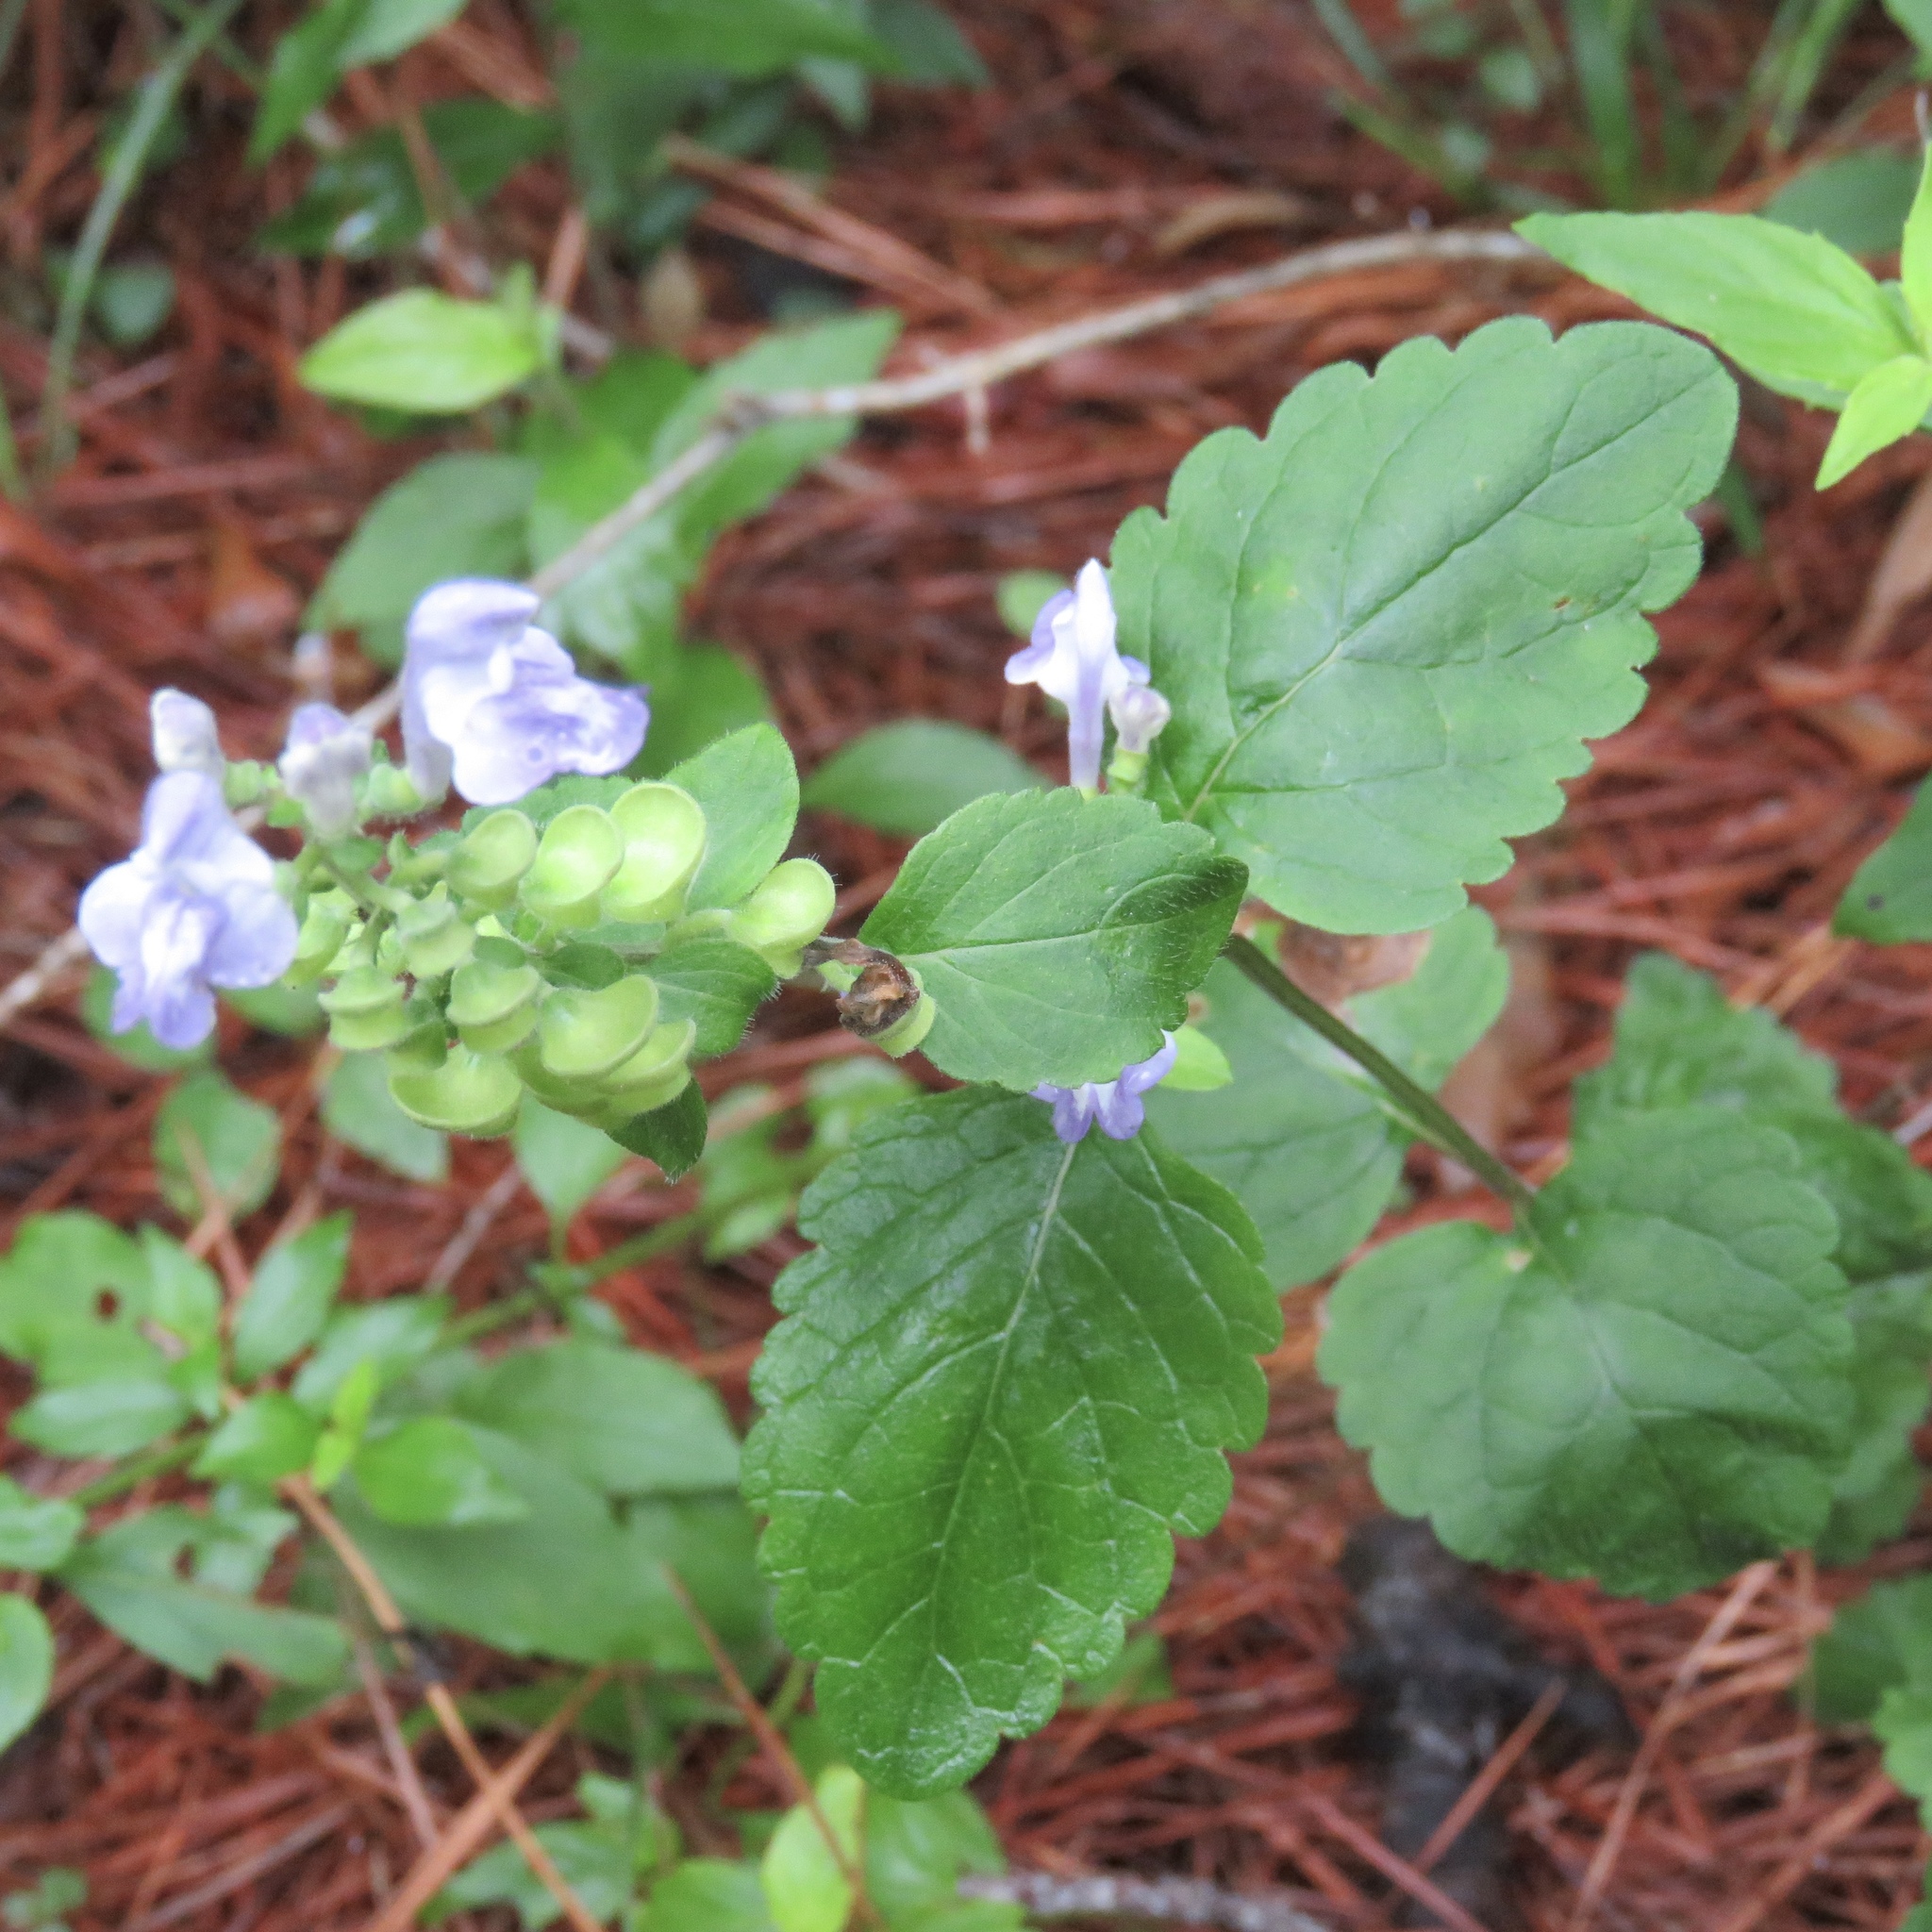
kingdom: Plantae
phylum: Tracheophyta
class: Magnoliopsida
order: Lamiales
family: Lamiaceae
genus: Scutellaria
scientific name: Scutellaria elliptica
